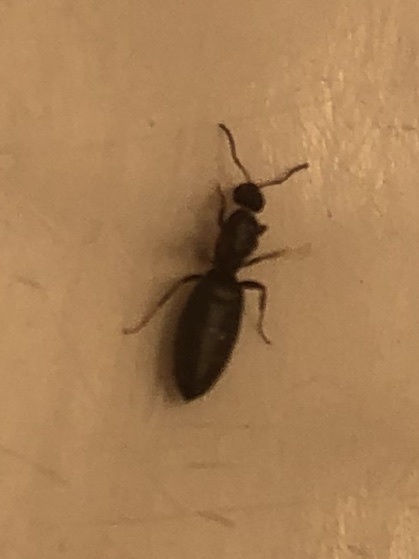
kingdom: Animalia
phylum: Arthropoda
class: Insecta
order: Hymenoptera
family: Formicidae
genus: Brachymyrmex
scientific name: Brachymyrmex patagonicus
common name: Dark rover ant
